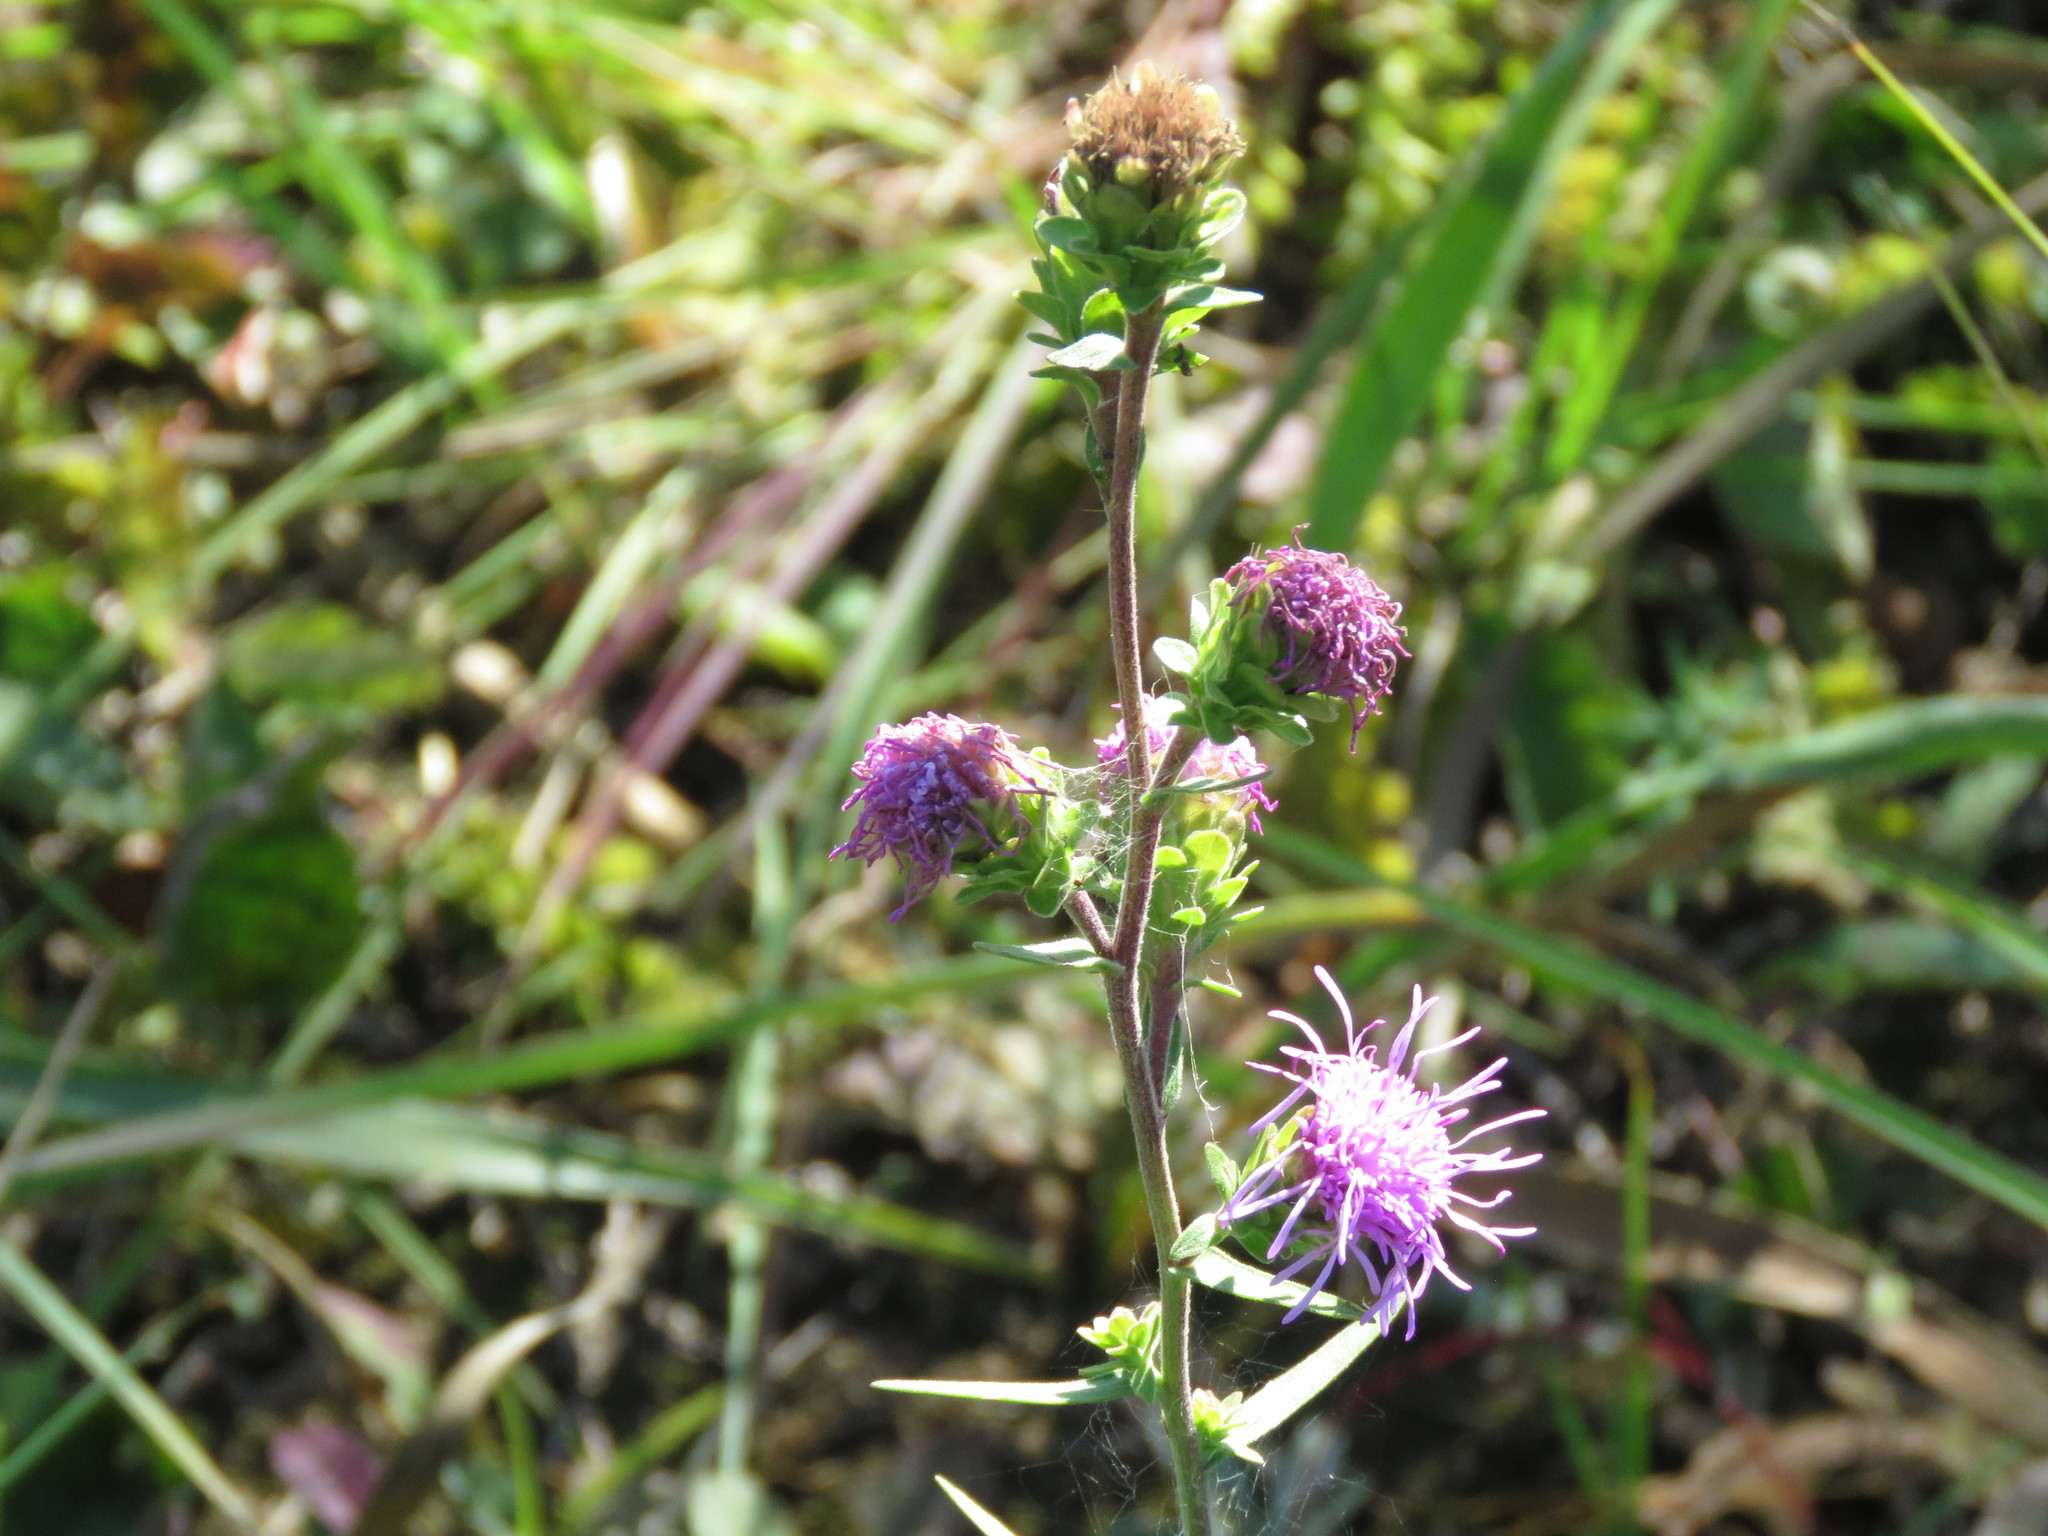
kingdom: Plantae
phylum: Tracheophyta
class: Magnoliopsida
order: Asterales
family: Asteraceae
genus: Liatris
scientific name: Liatris scariosa
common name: Northern gayfeather
